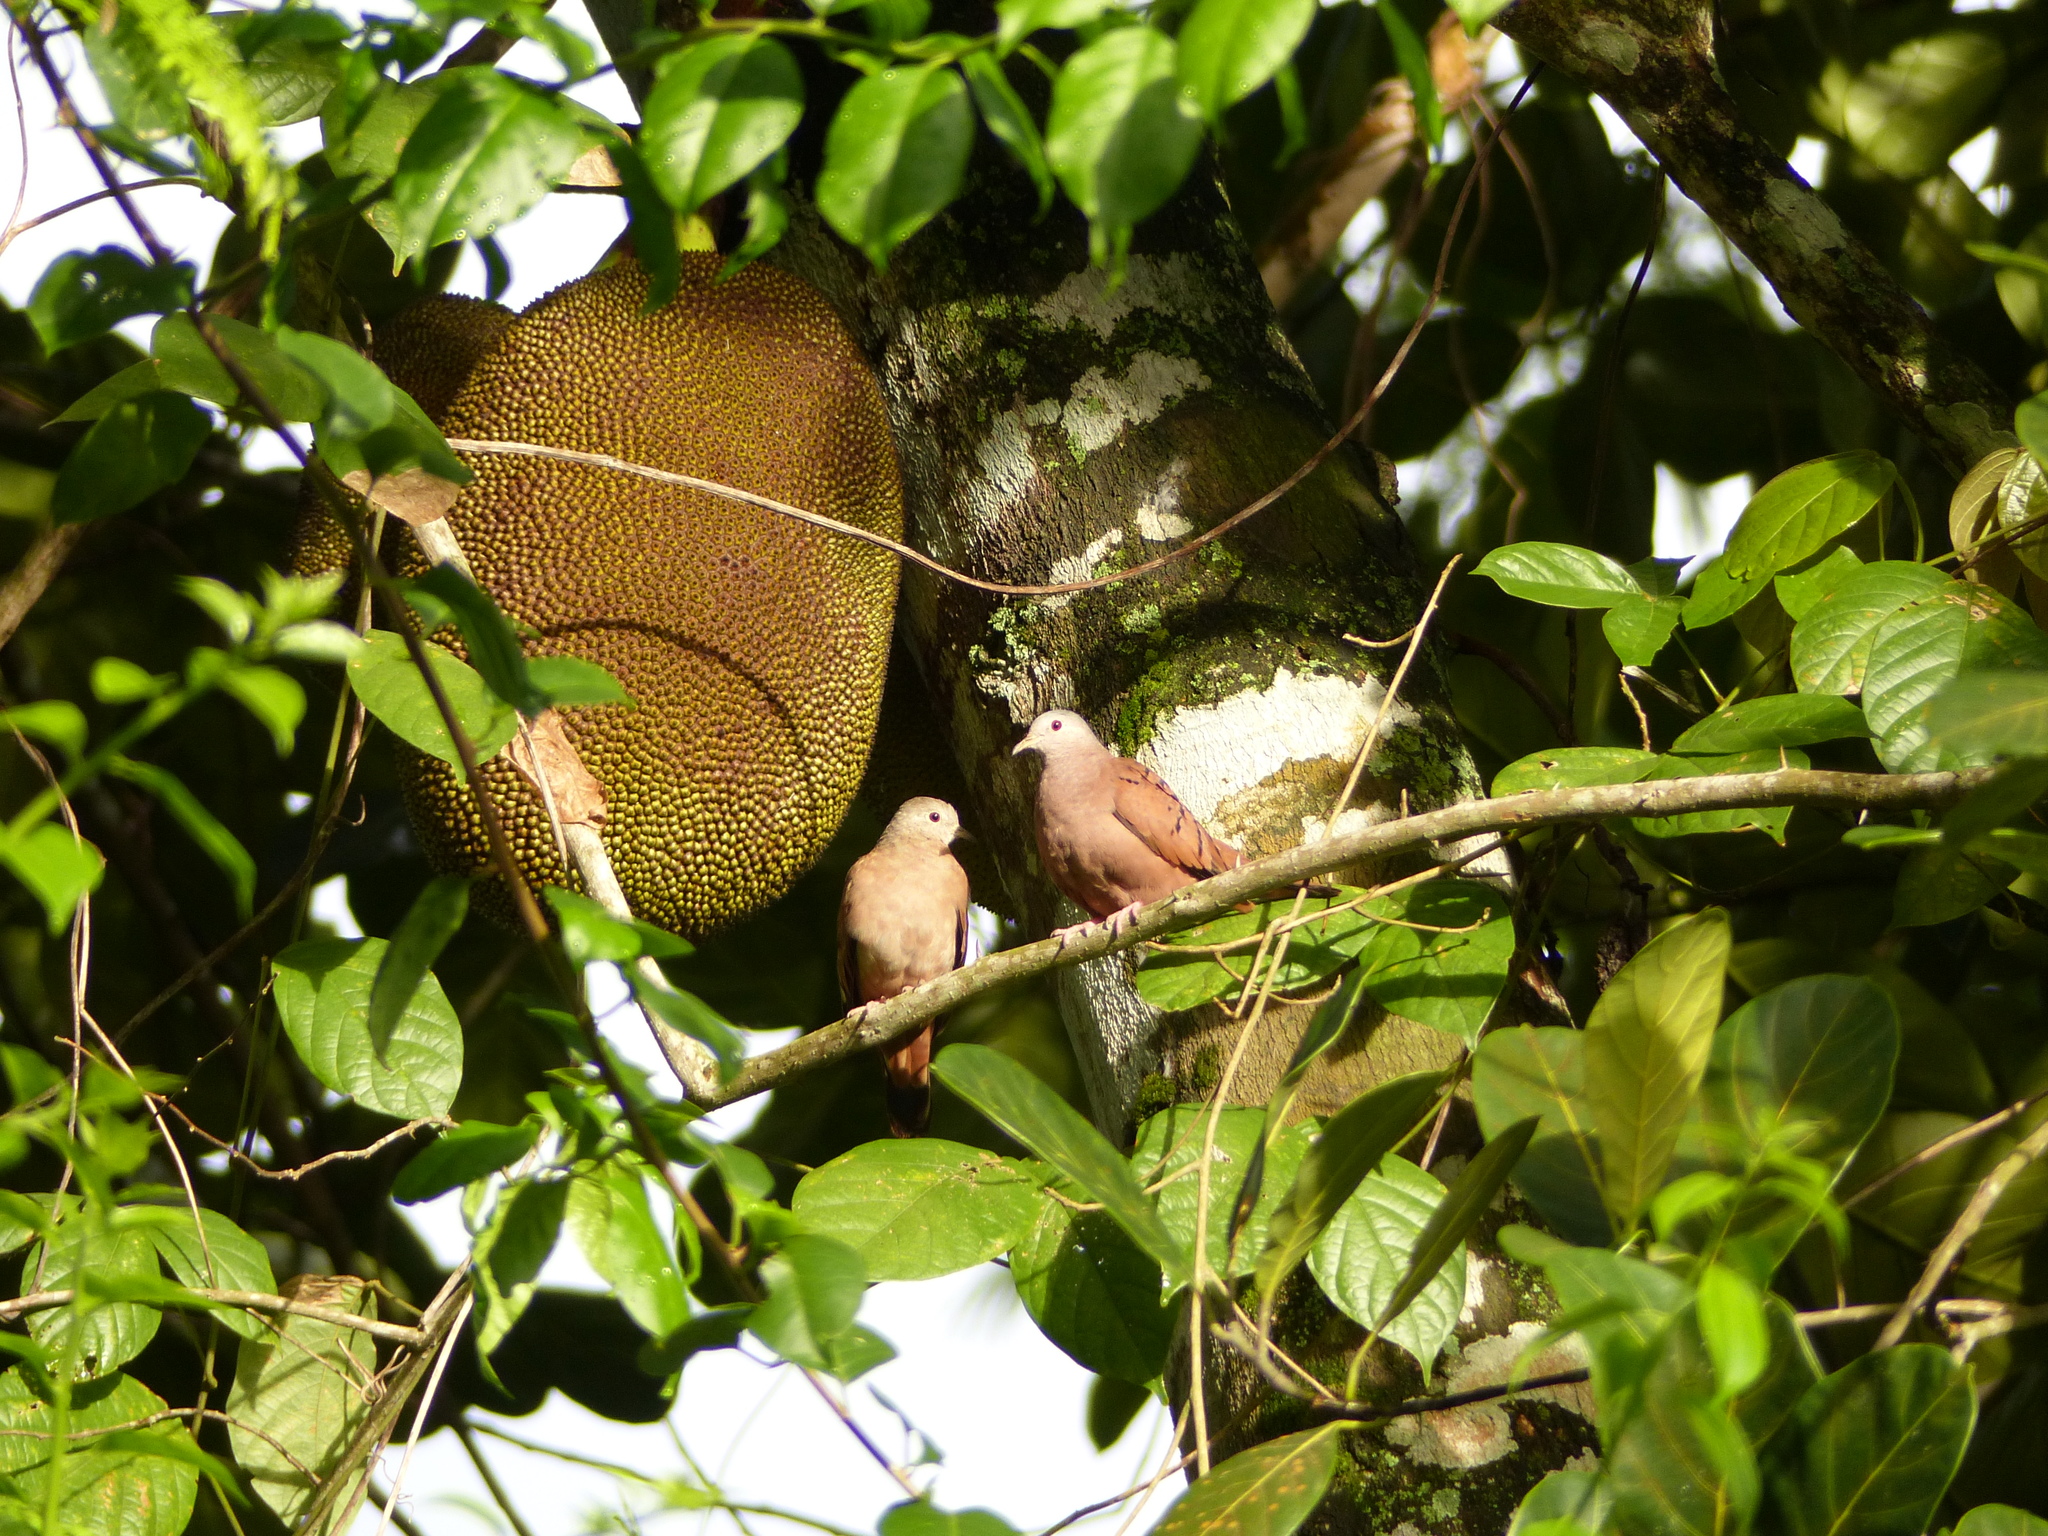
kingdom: Animalia
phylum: Chordata
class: Aves
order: Columbiformes
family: Columbidae
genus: Columbina
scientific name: Columbina talpacoti
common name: Ruddy ground dove
